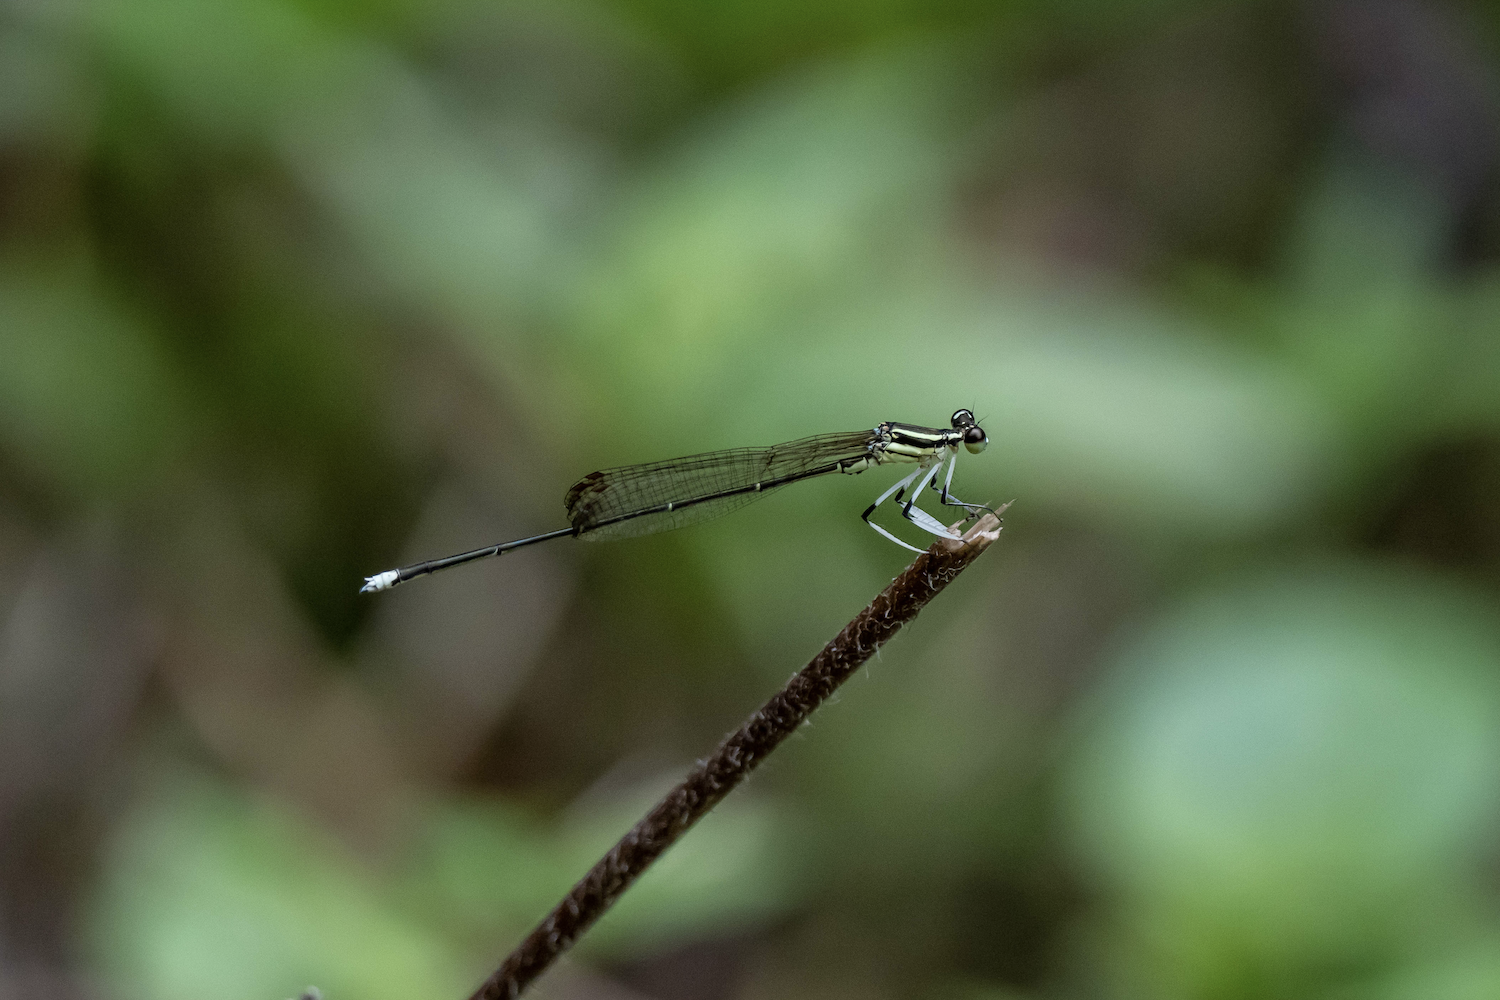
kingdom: Animalia
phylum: Arthropoda
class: Insecta
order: Odonata
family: Platycnemididae
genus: Pseudocopera
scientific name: Pseudocopera ciliata
